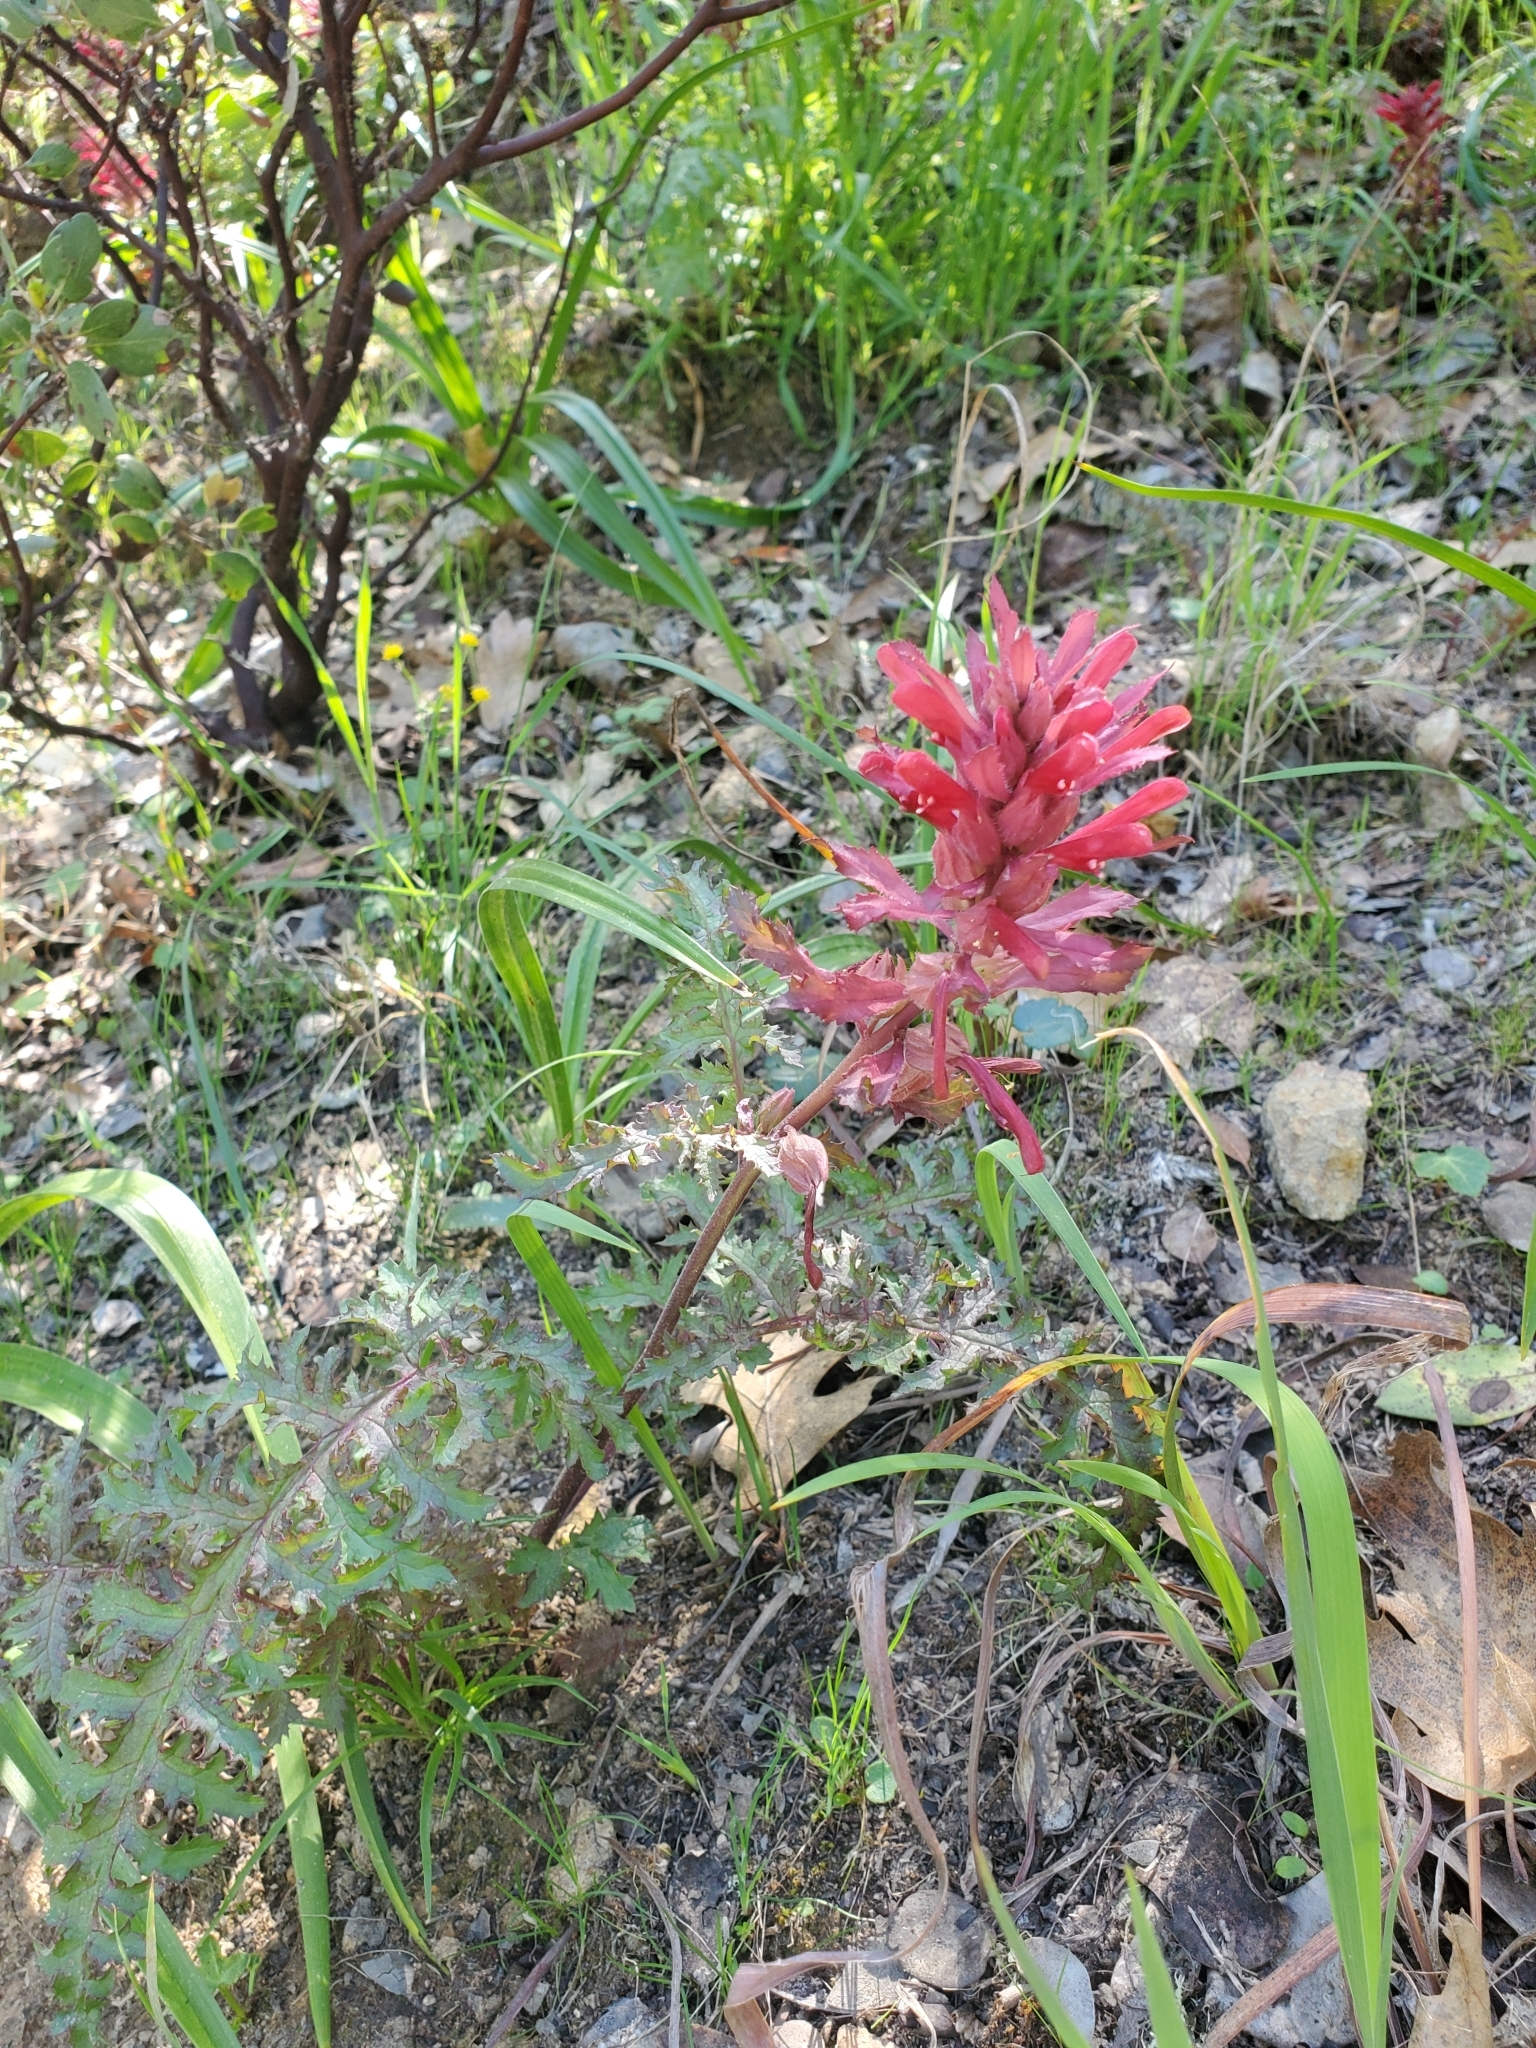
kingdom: Plantae
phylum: Tracheophyta
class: Magnoliopsida
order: Lamiales
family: Orobanchaceae
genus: Pedicularis
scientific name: Pedicularis densiflora
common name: Indian warrior
